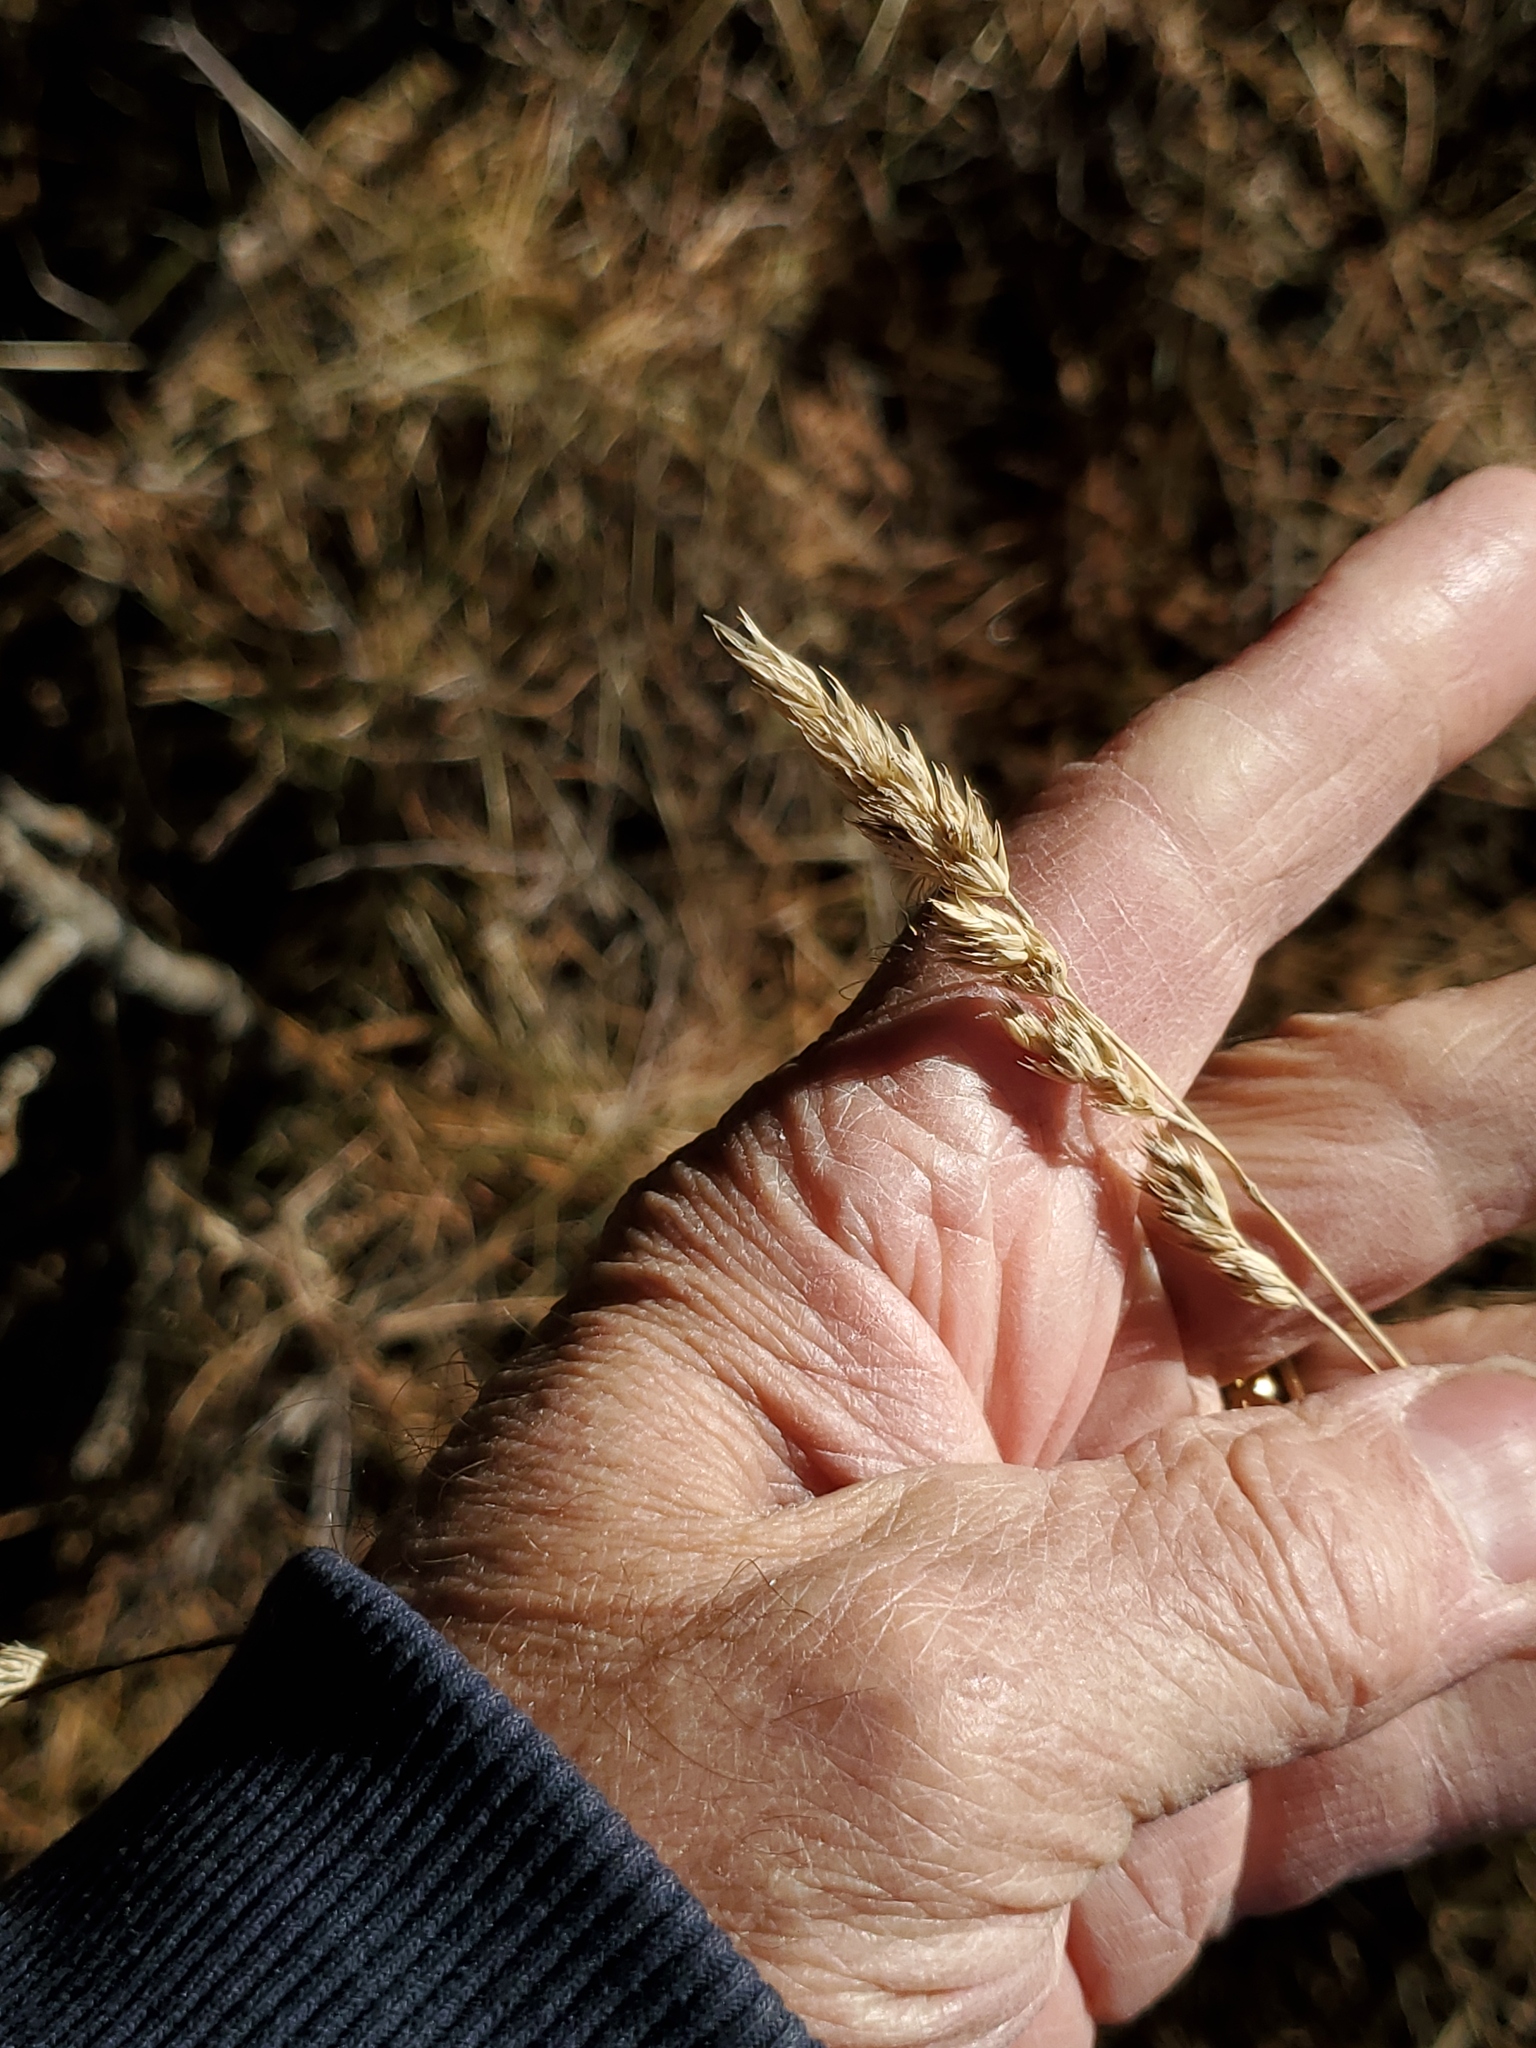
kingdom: Plantae
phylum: Tracheophyta
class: Liliopsida
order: Poales
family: Poaceae
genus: Dactylis
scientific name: Dactylis glomerata
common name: Orchardgrass
